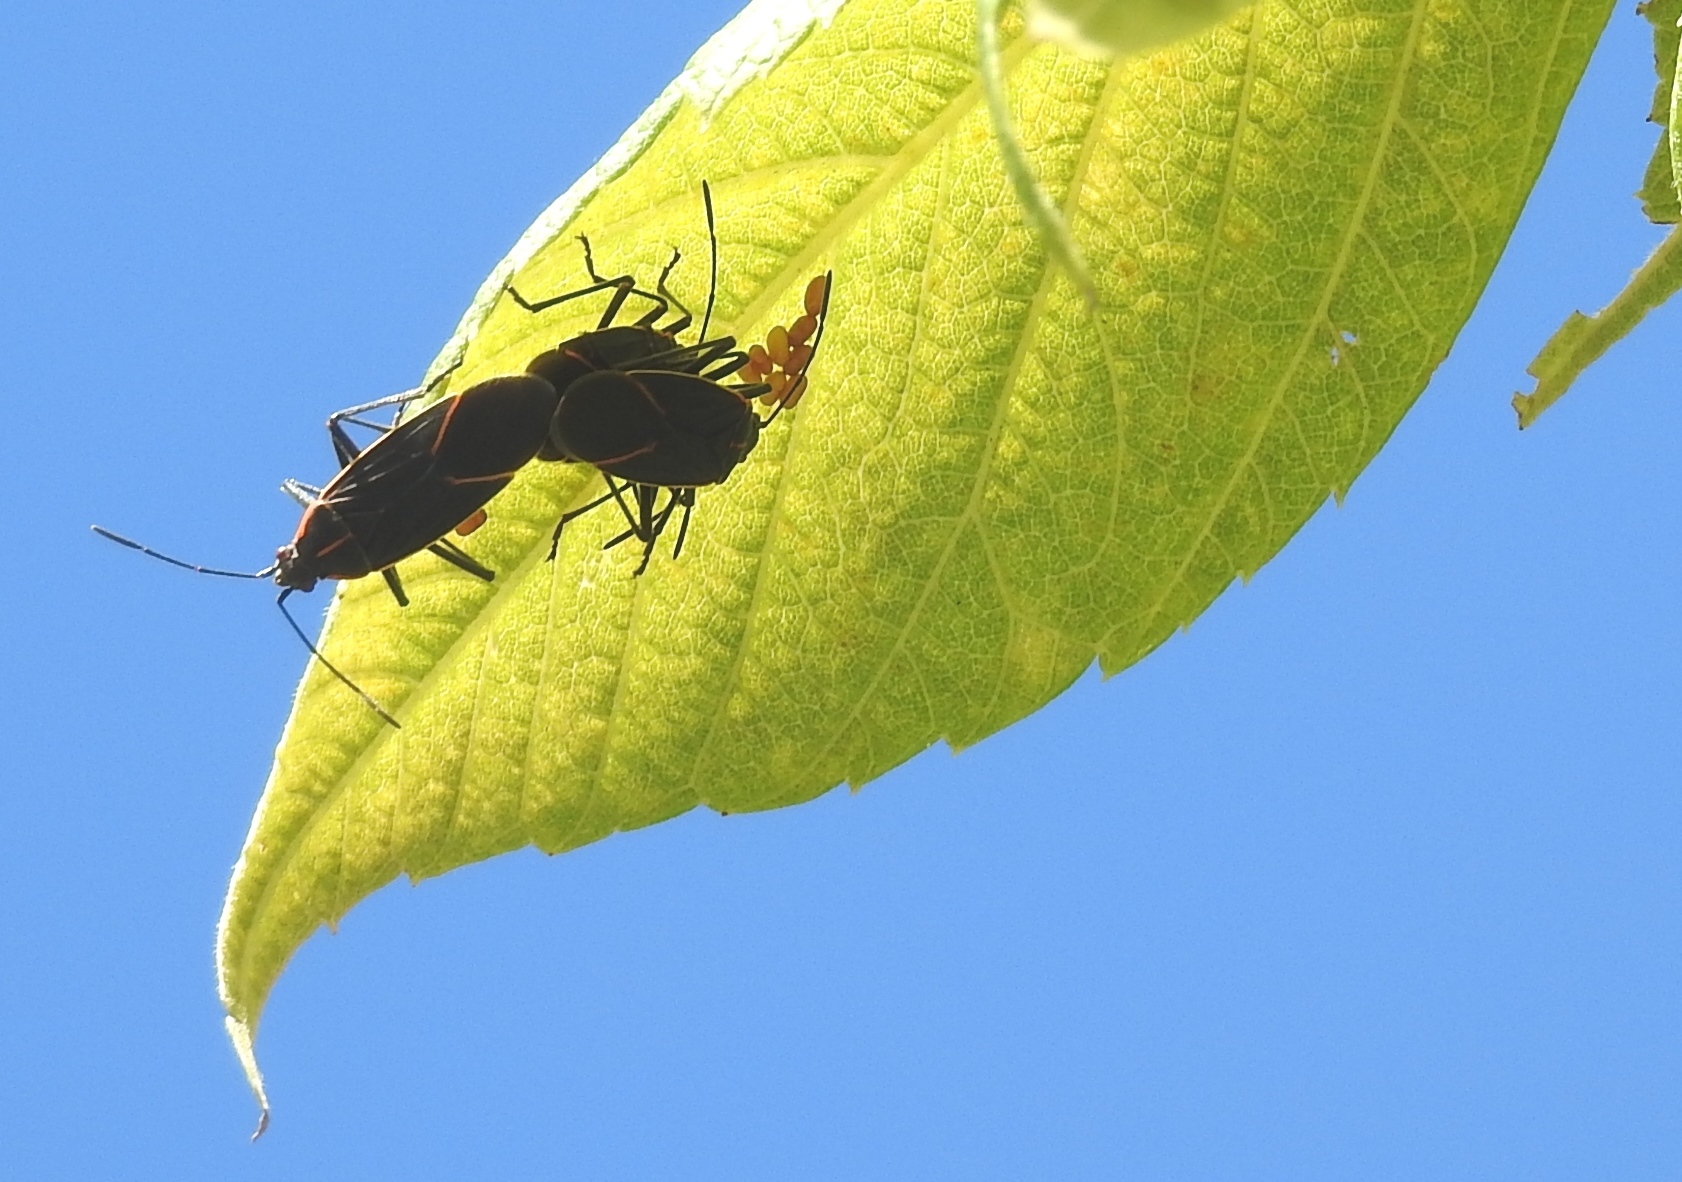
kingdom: Animalia
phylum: Arthropoda
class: Insecta
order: Hemiptera
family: Rhopalidae
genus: Boisea
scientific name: Boisea trivittata
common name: Boxelder bug
